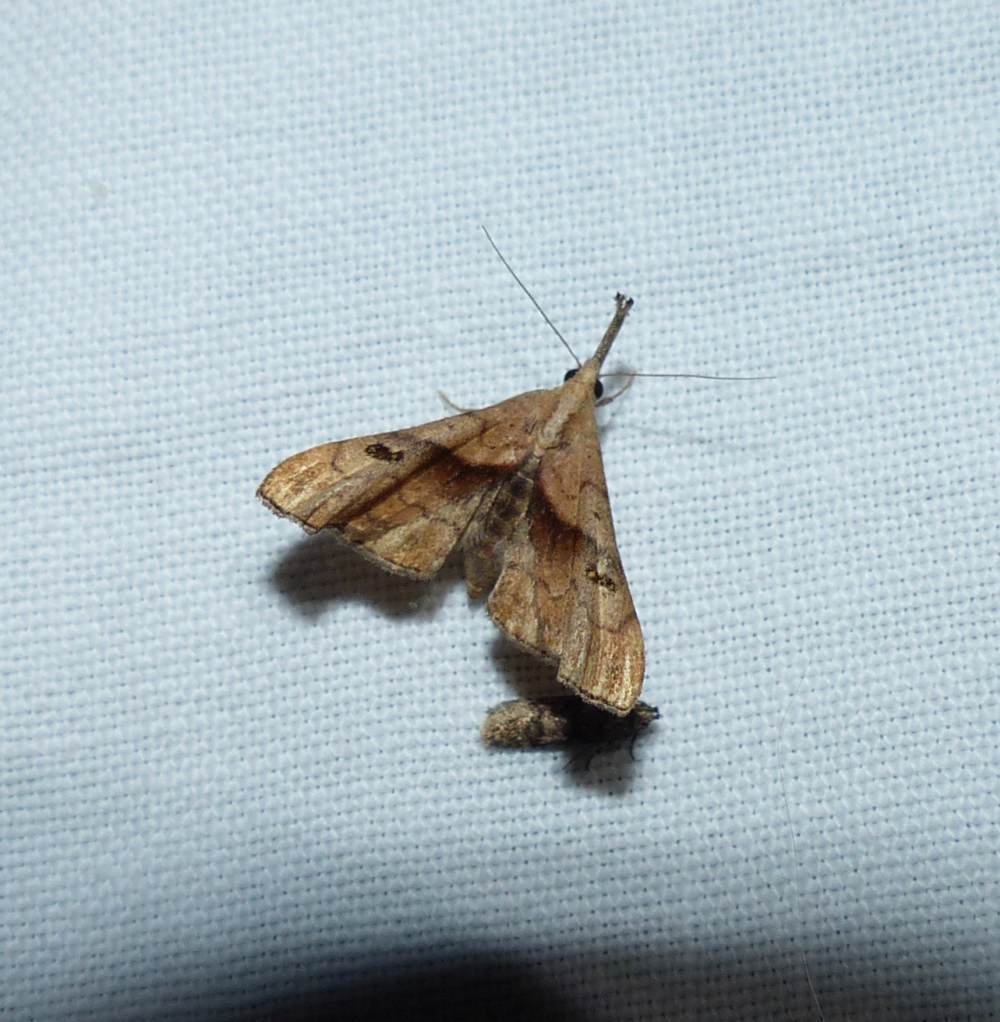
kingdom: Animalia
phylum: Arthropoda
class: Insecta
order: Lepidoptera
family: Erebidae
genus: Palthis
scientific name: Palthis angulalis
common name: Dark-spotted palthis moth
